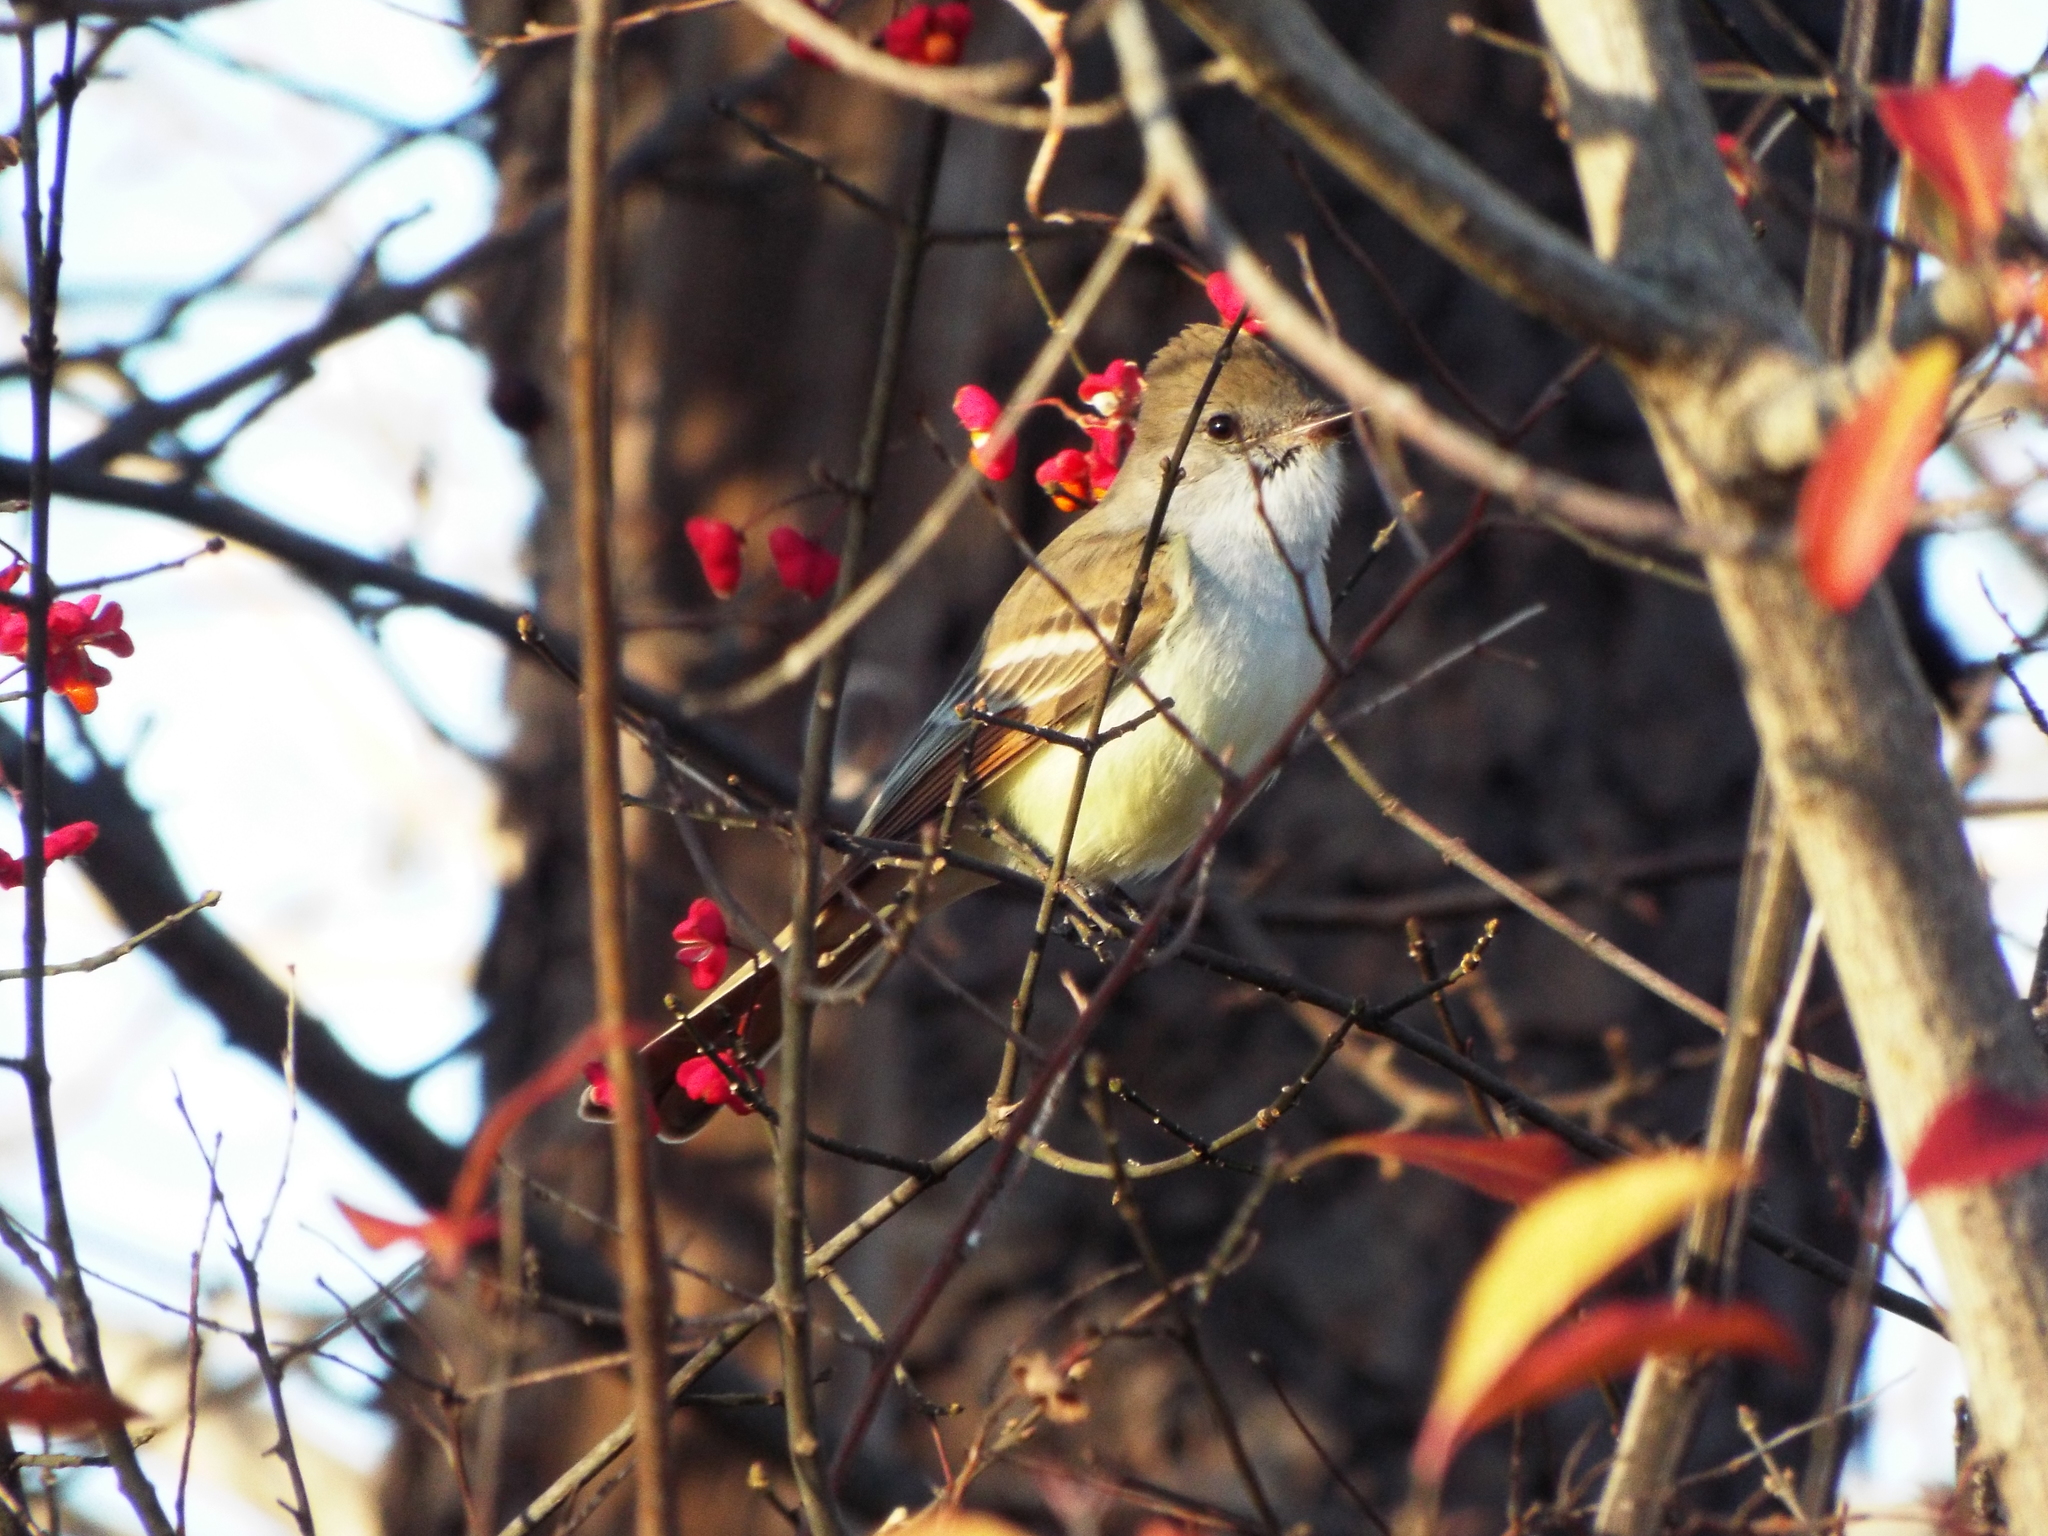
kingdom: Animalia
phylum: Chordata
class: Aves
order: Passeriformes
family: Tyrannidae
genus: Myiarchus
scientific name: Myiarchus cinerascens
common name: Ash-throated flycatcher
